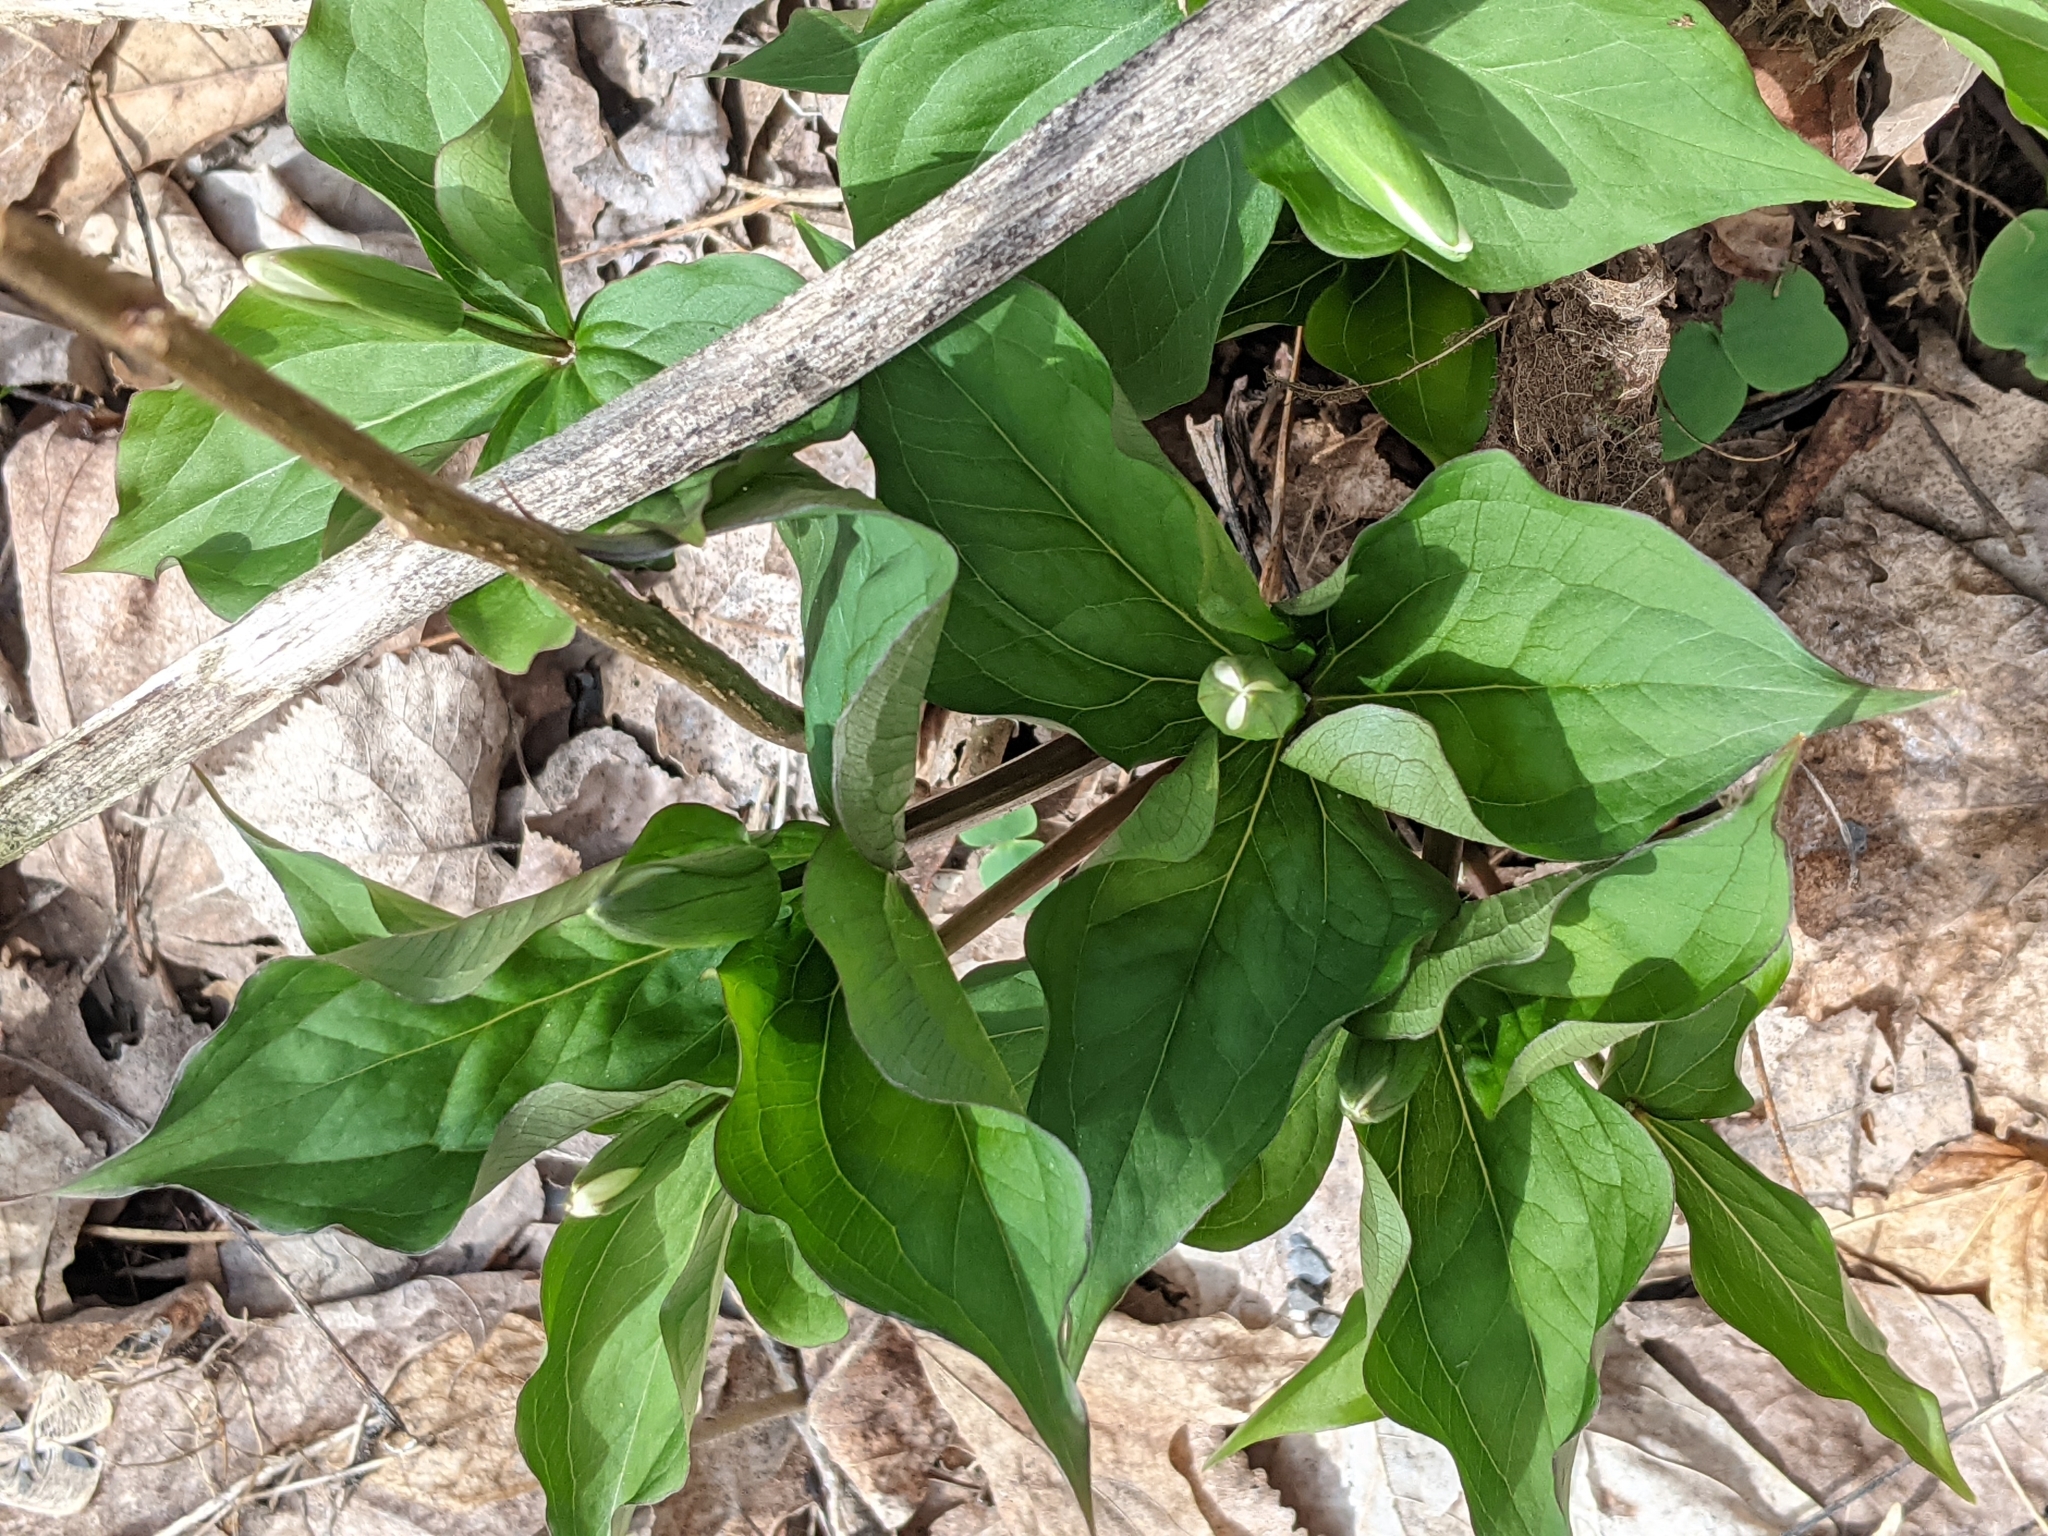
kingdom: Plantae
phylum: Tracheophyta
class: Liliopsida
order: Liliales
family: Melanthiaceae
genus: Trillium
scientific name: Trillium grandiflorum
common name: Great white trillium
